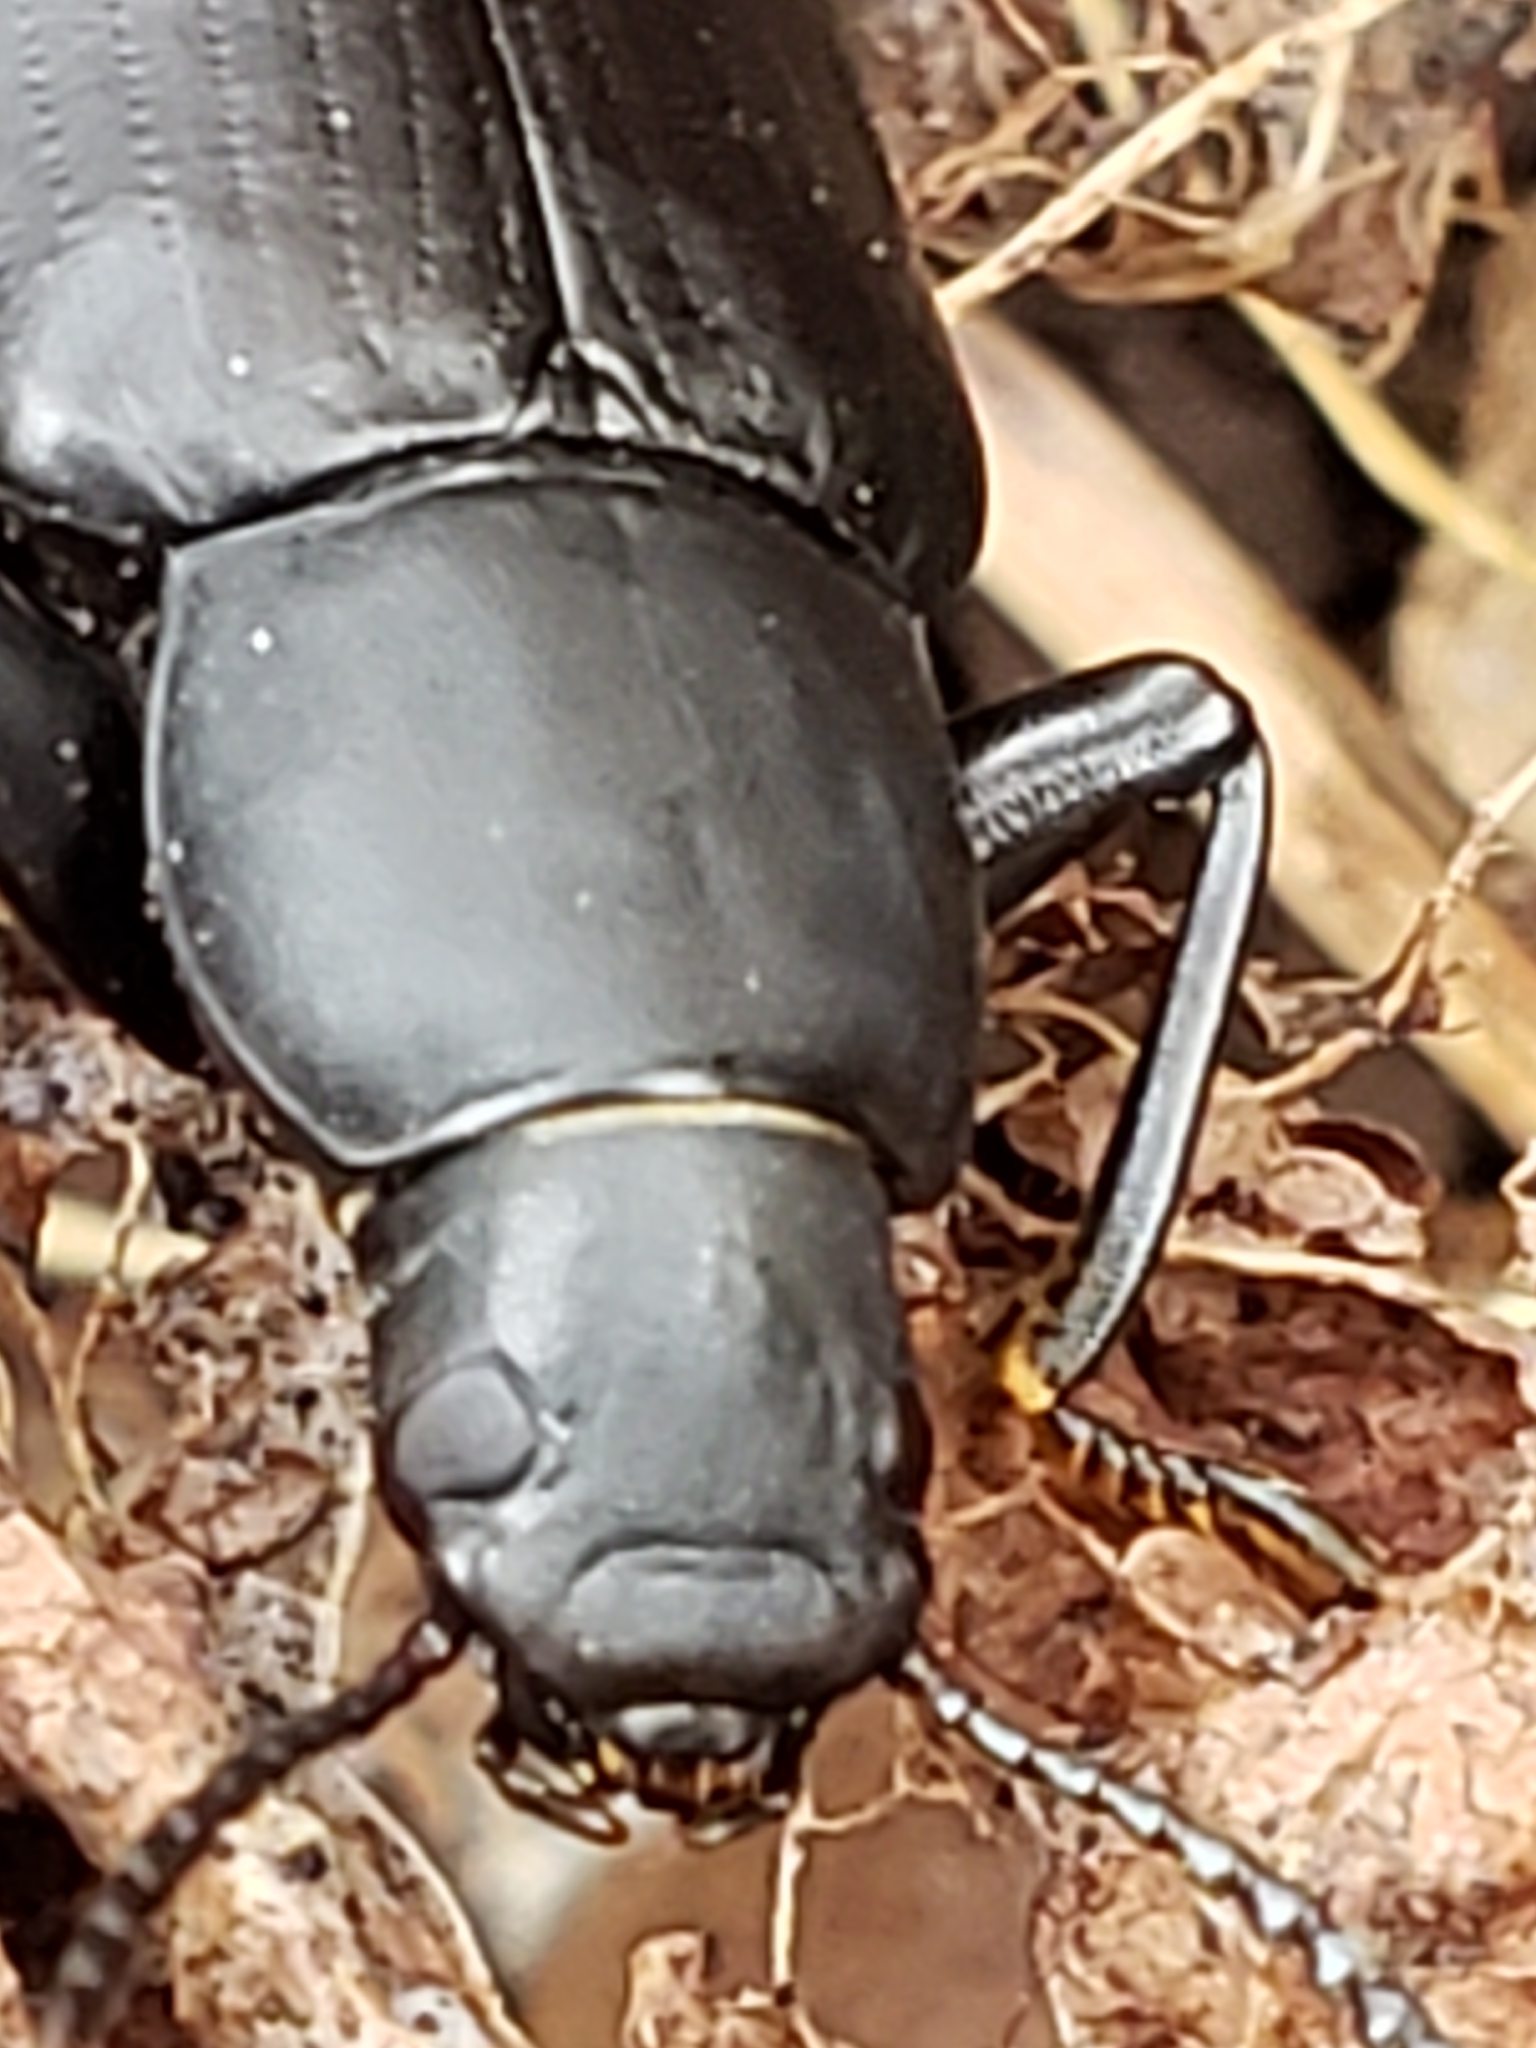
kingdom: Animalia
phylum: Arthropoda
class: Insecta
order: Coleoptera
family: Tenebrionidae
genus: Alobates
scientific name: Alobates pensylvanicus
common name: False mealworm beetle
